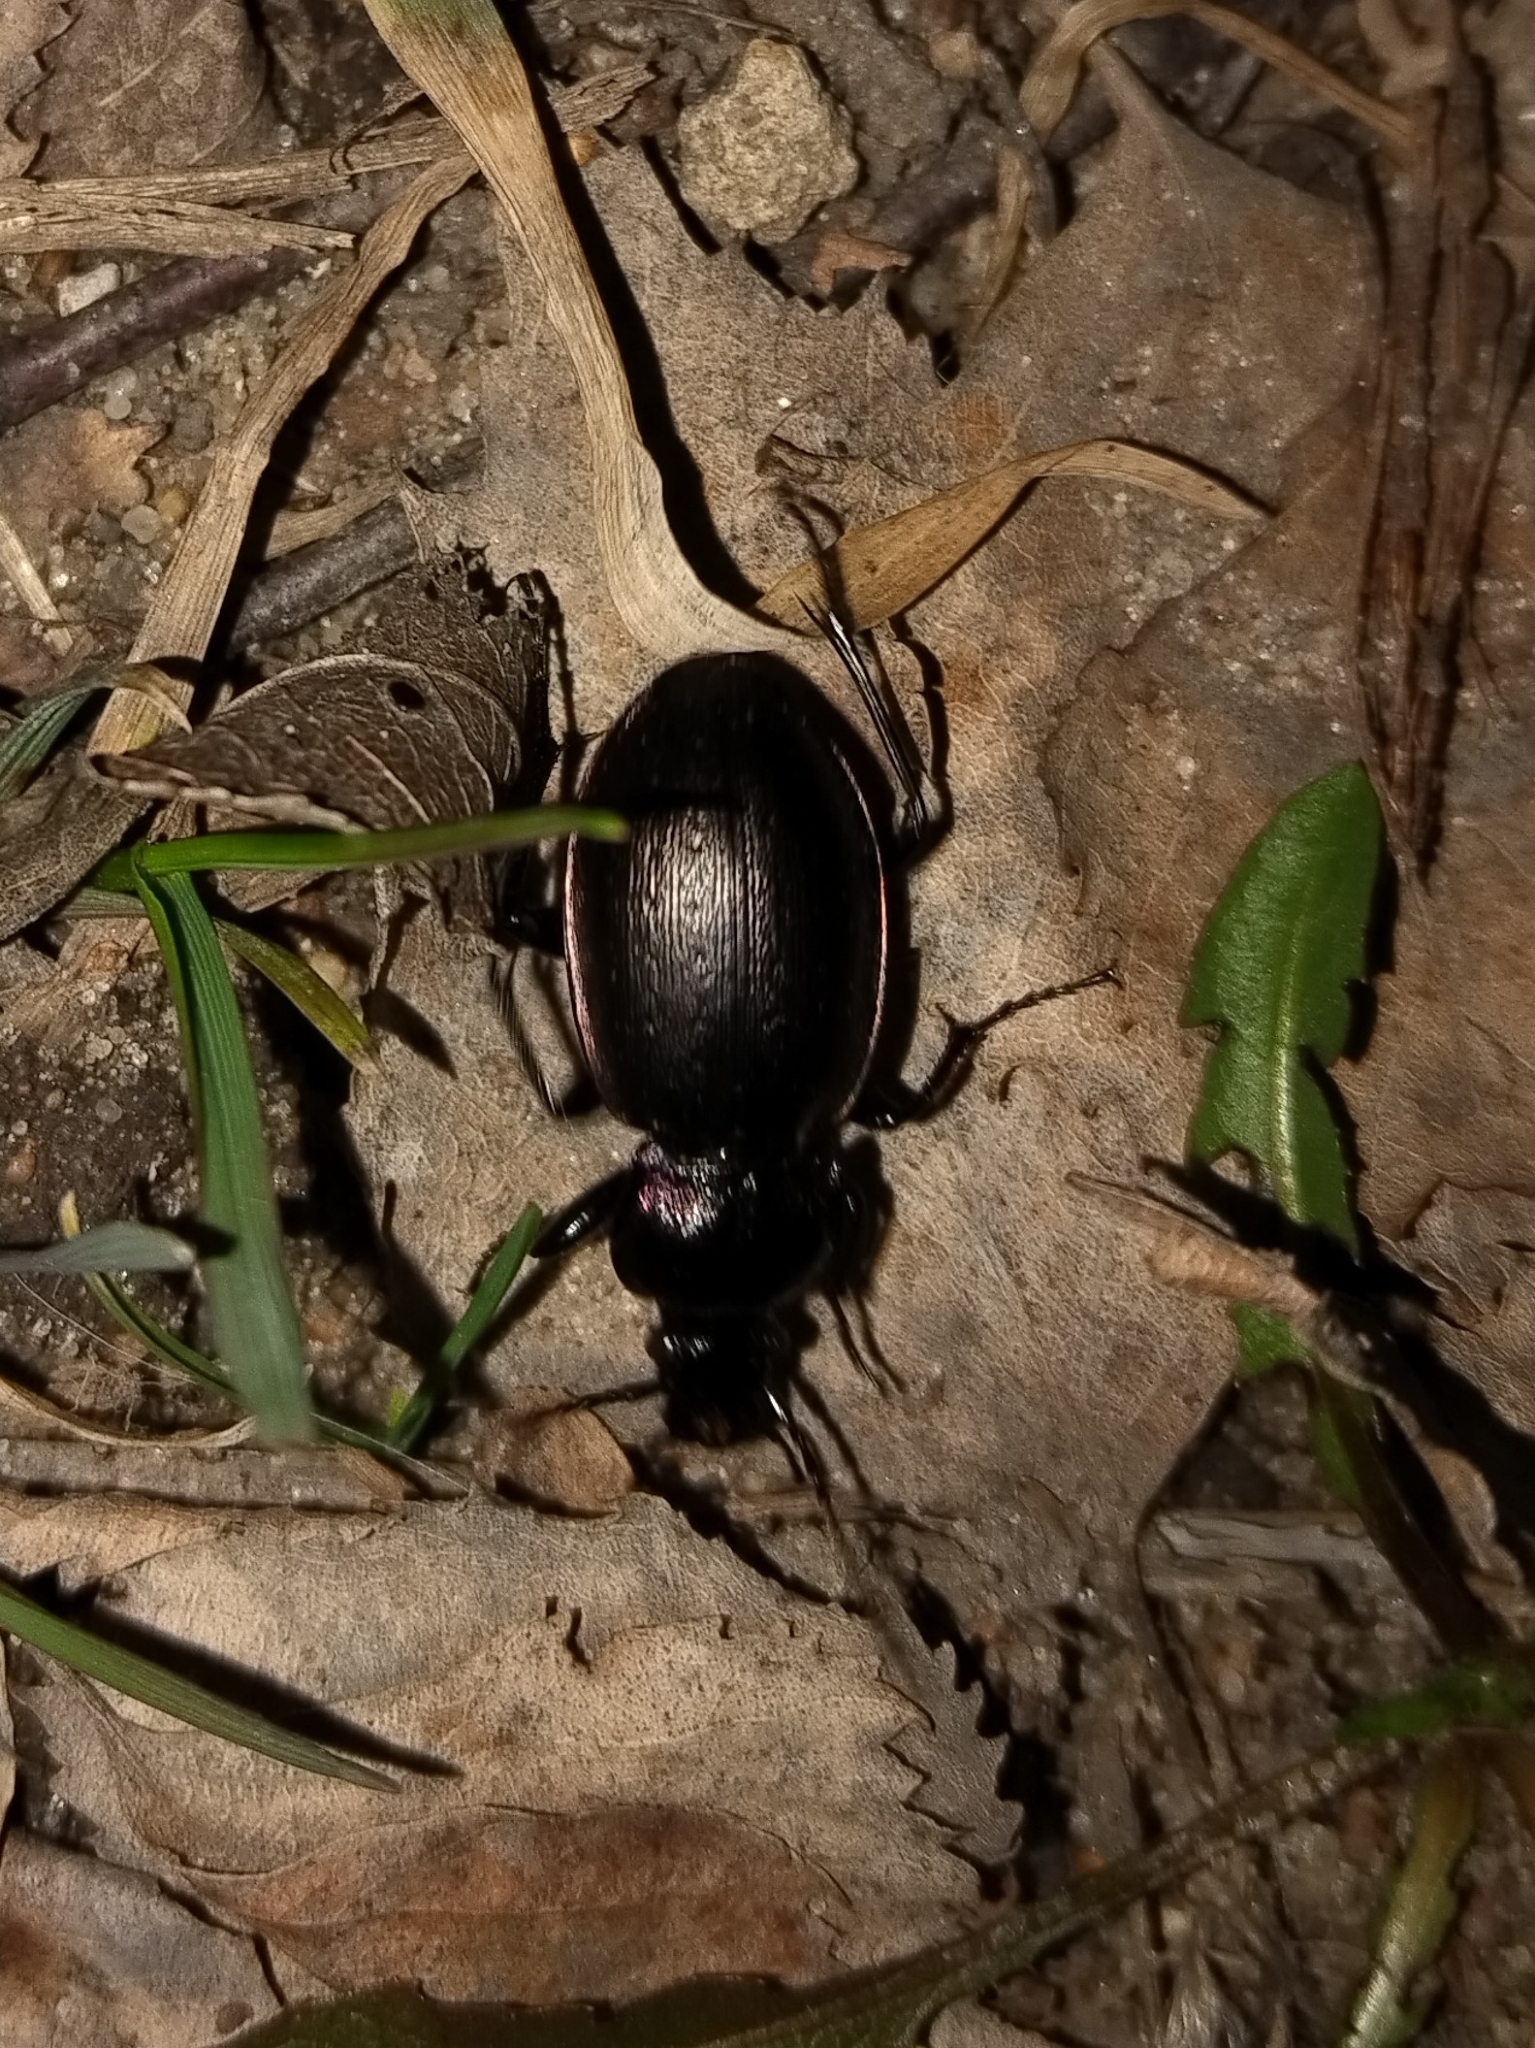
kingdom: Animalia
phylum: Arthropoda
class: Insecta
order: Coleoptera
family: Carabidae
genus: Carabus
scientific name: Carabus nemoralis
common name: European ground beetle
